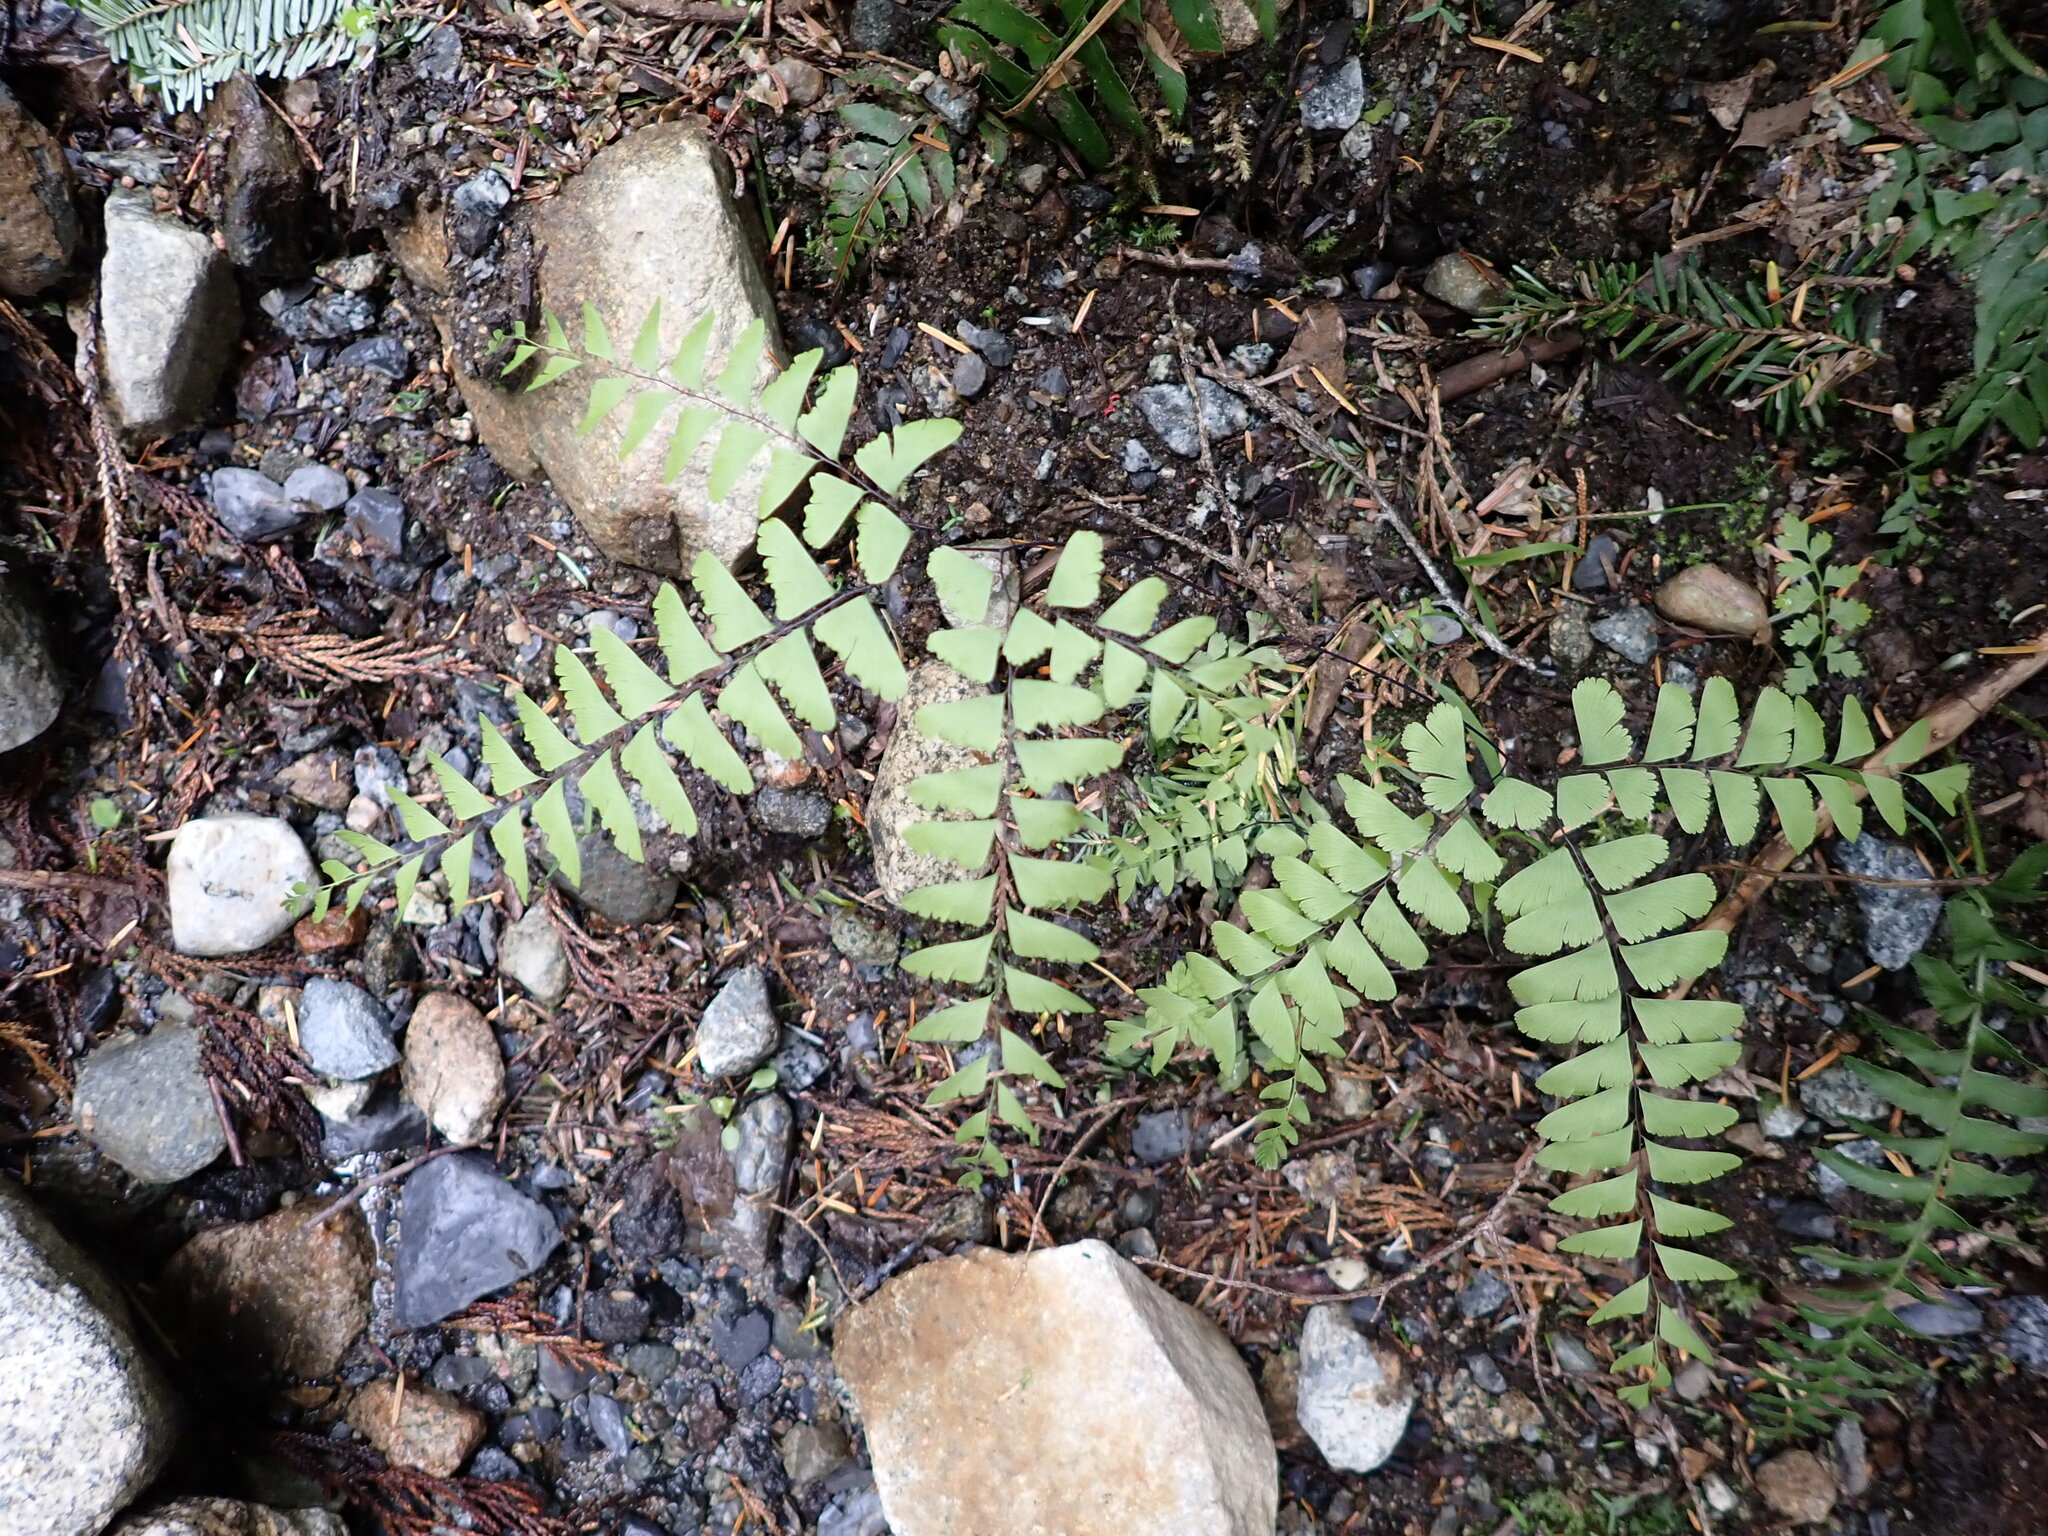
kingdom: Plantae
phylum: Tracheophyta
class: Polypodiopsida
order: Polypodiales
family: Pteridaceae
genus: Adiantum
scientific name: Adiantum aleuticum
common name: Aleutian maidenhair fern
